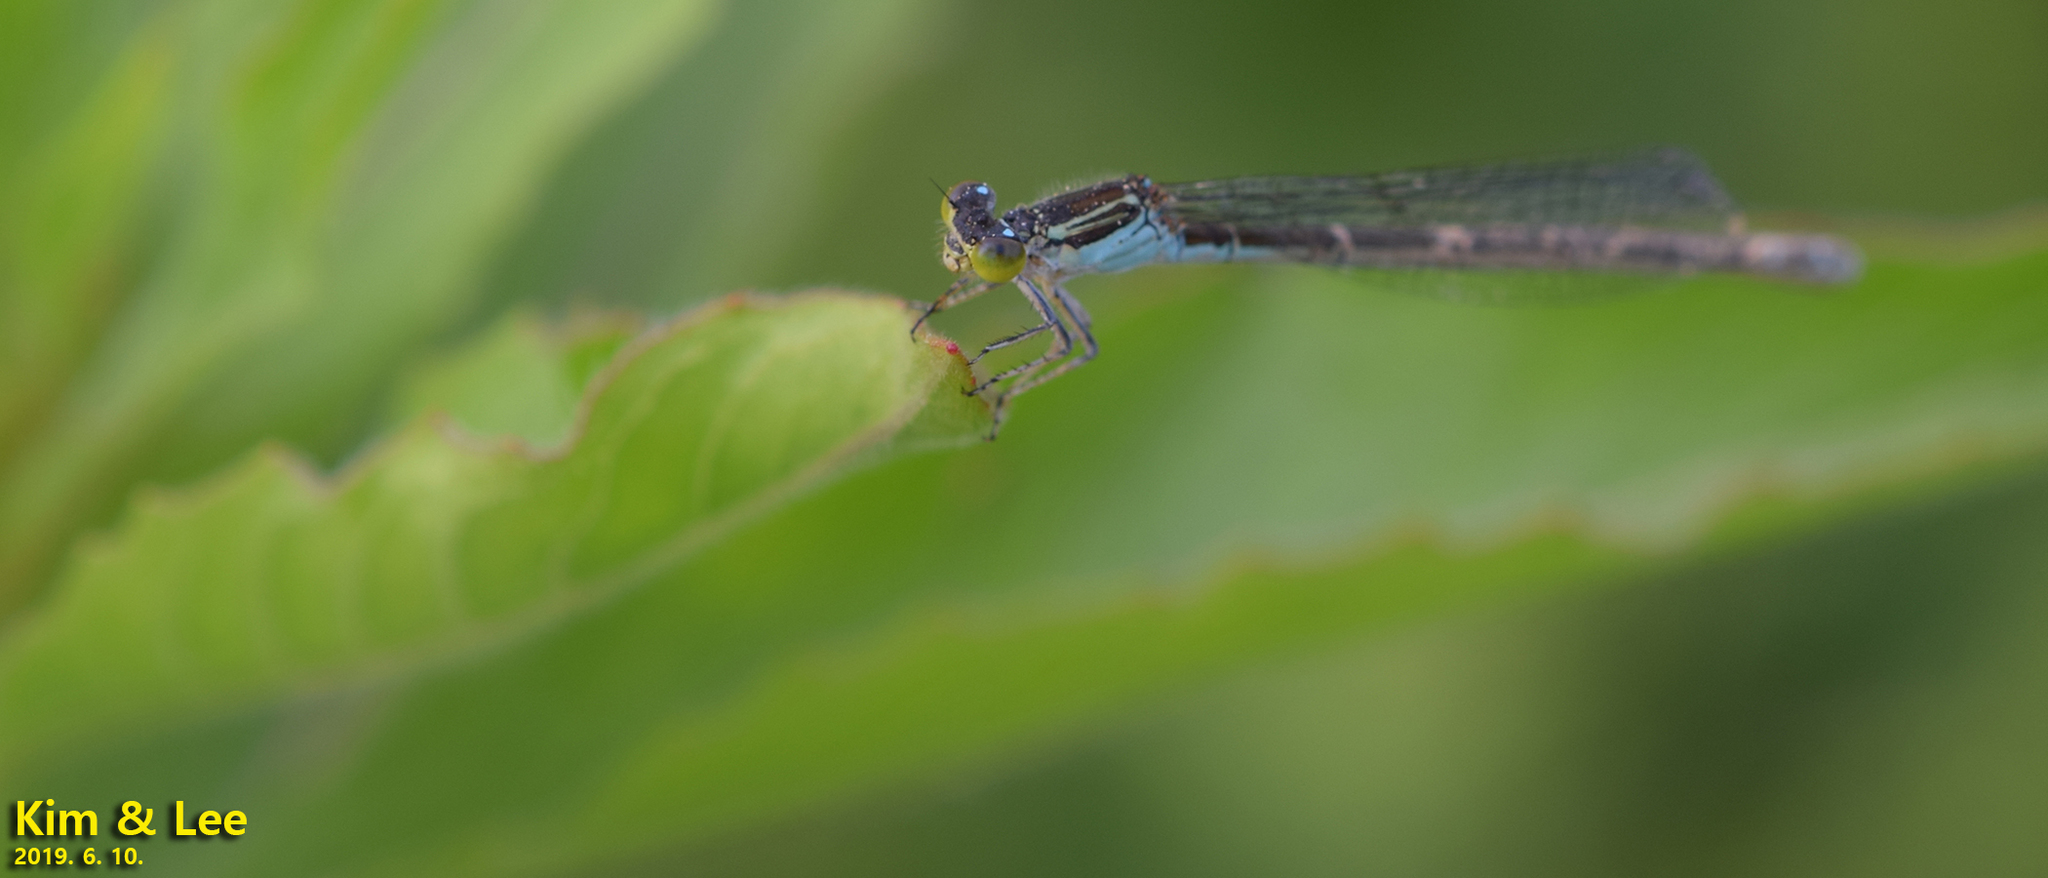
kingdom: Animalia
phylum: Arthropoda
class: Insecta
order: Odonata
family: Coenagrionidae
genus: Paracercion
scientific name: Paracercion calamorum
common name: Dusky lilysquatter
